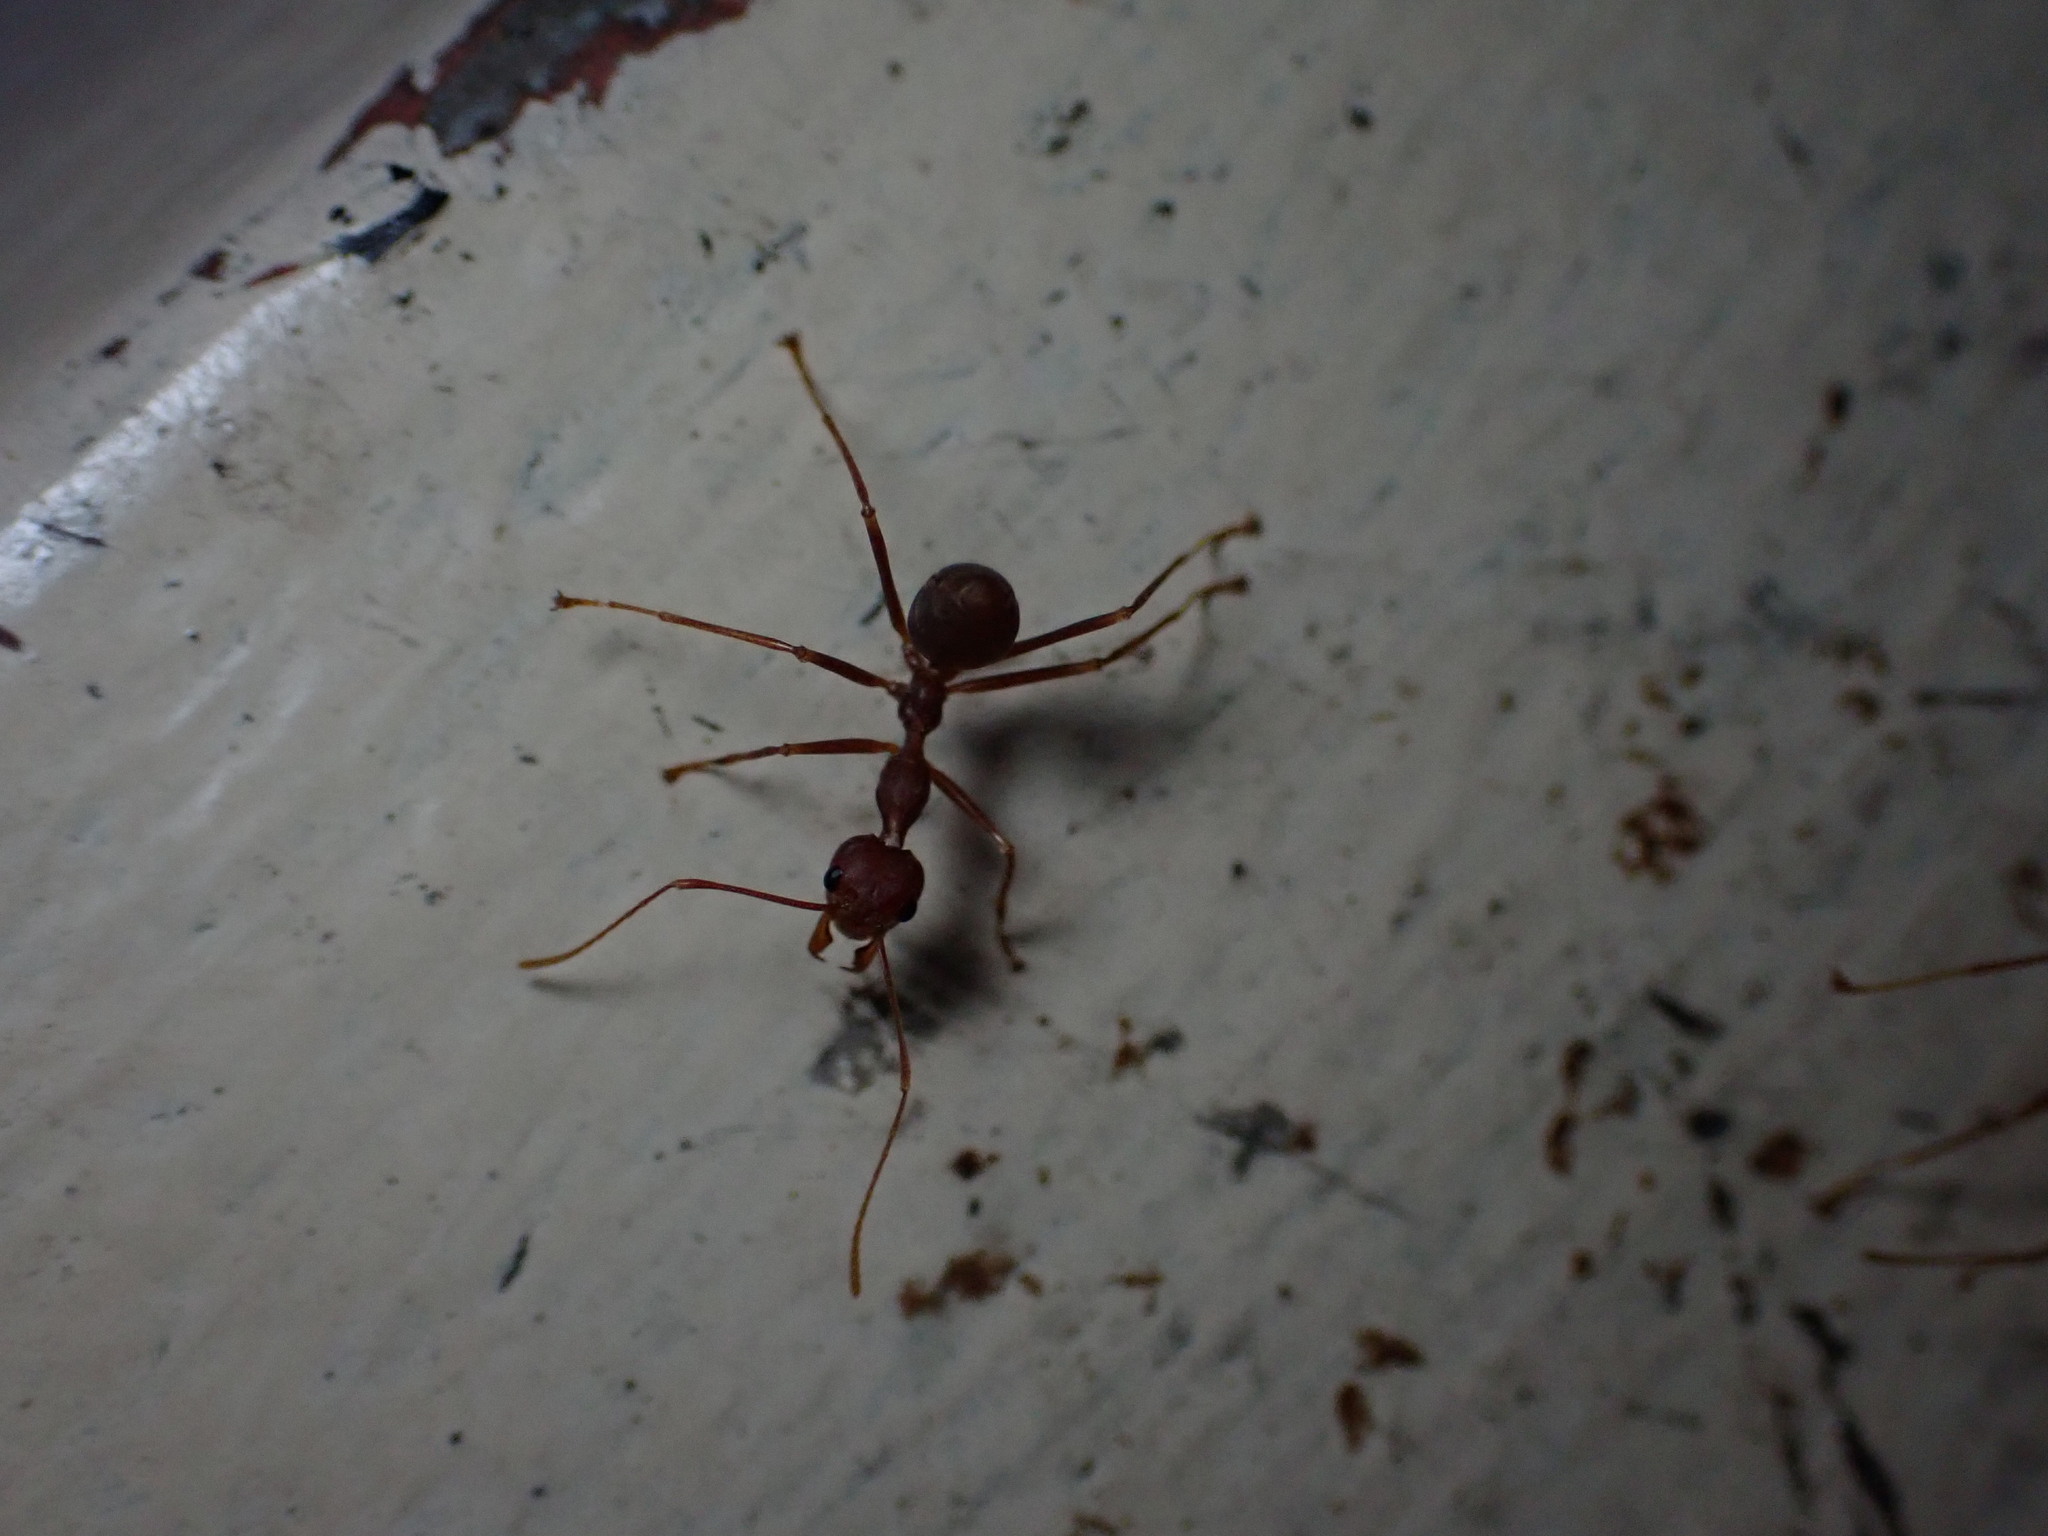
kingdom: Animalia
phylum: Arthropoda
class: Insecta
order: Hymenoptera
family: Formicidae
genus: Oecophylla
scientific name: Oecophylla smaragdina
